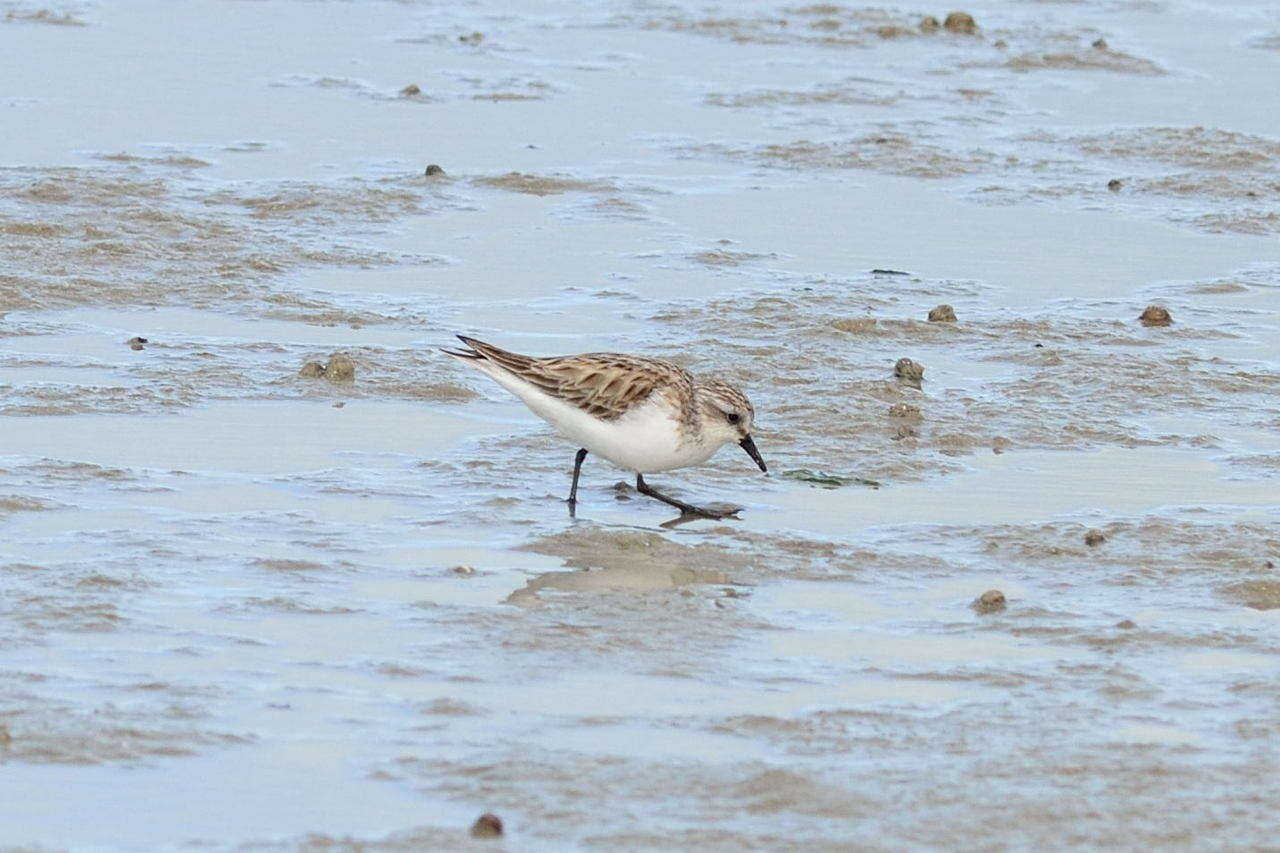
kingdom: Animalia
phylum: Chordata
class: Aves
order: Charadriiformes
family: Scolopacidae
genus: Calidris
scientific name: Calidris ruficollis
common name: Red-necked stint
